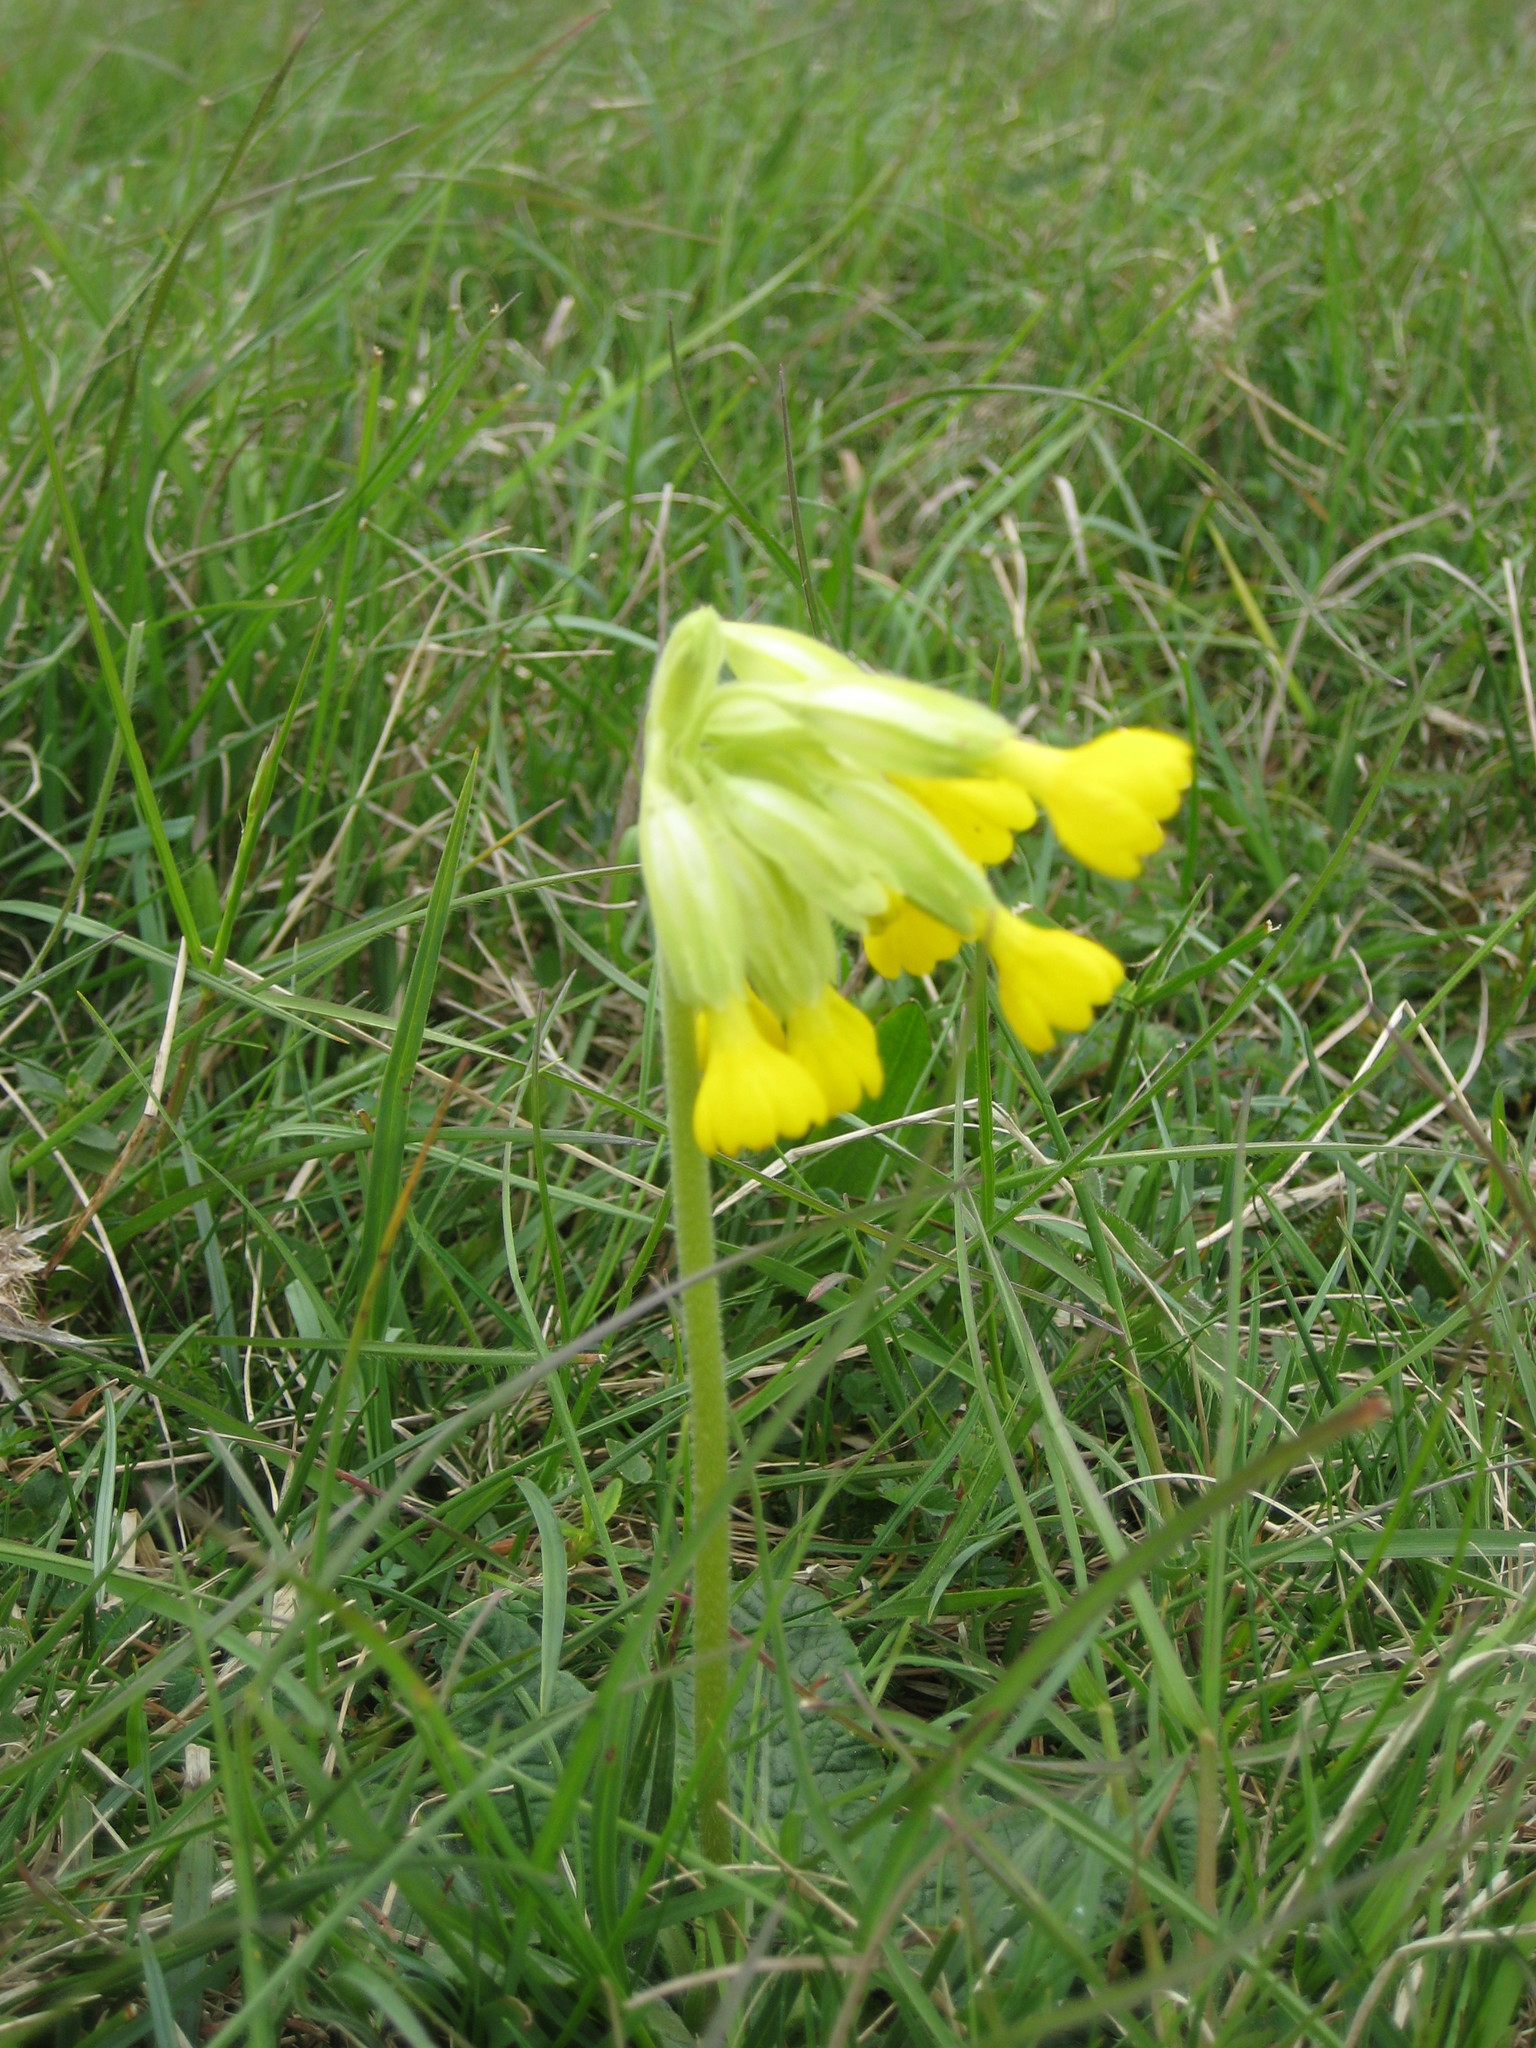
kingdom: Plantae
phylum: Tracheophyta
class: Magnoliopsida
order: Ericales
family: Primulaceae
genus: Primula
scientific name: Primula veris
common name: Cowslip
